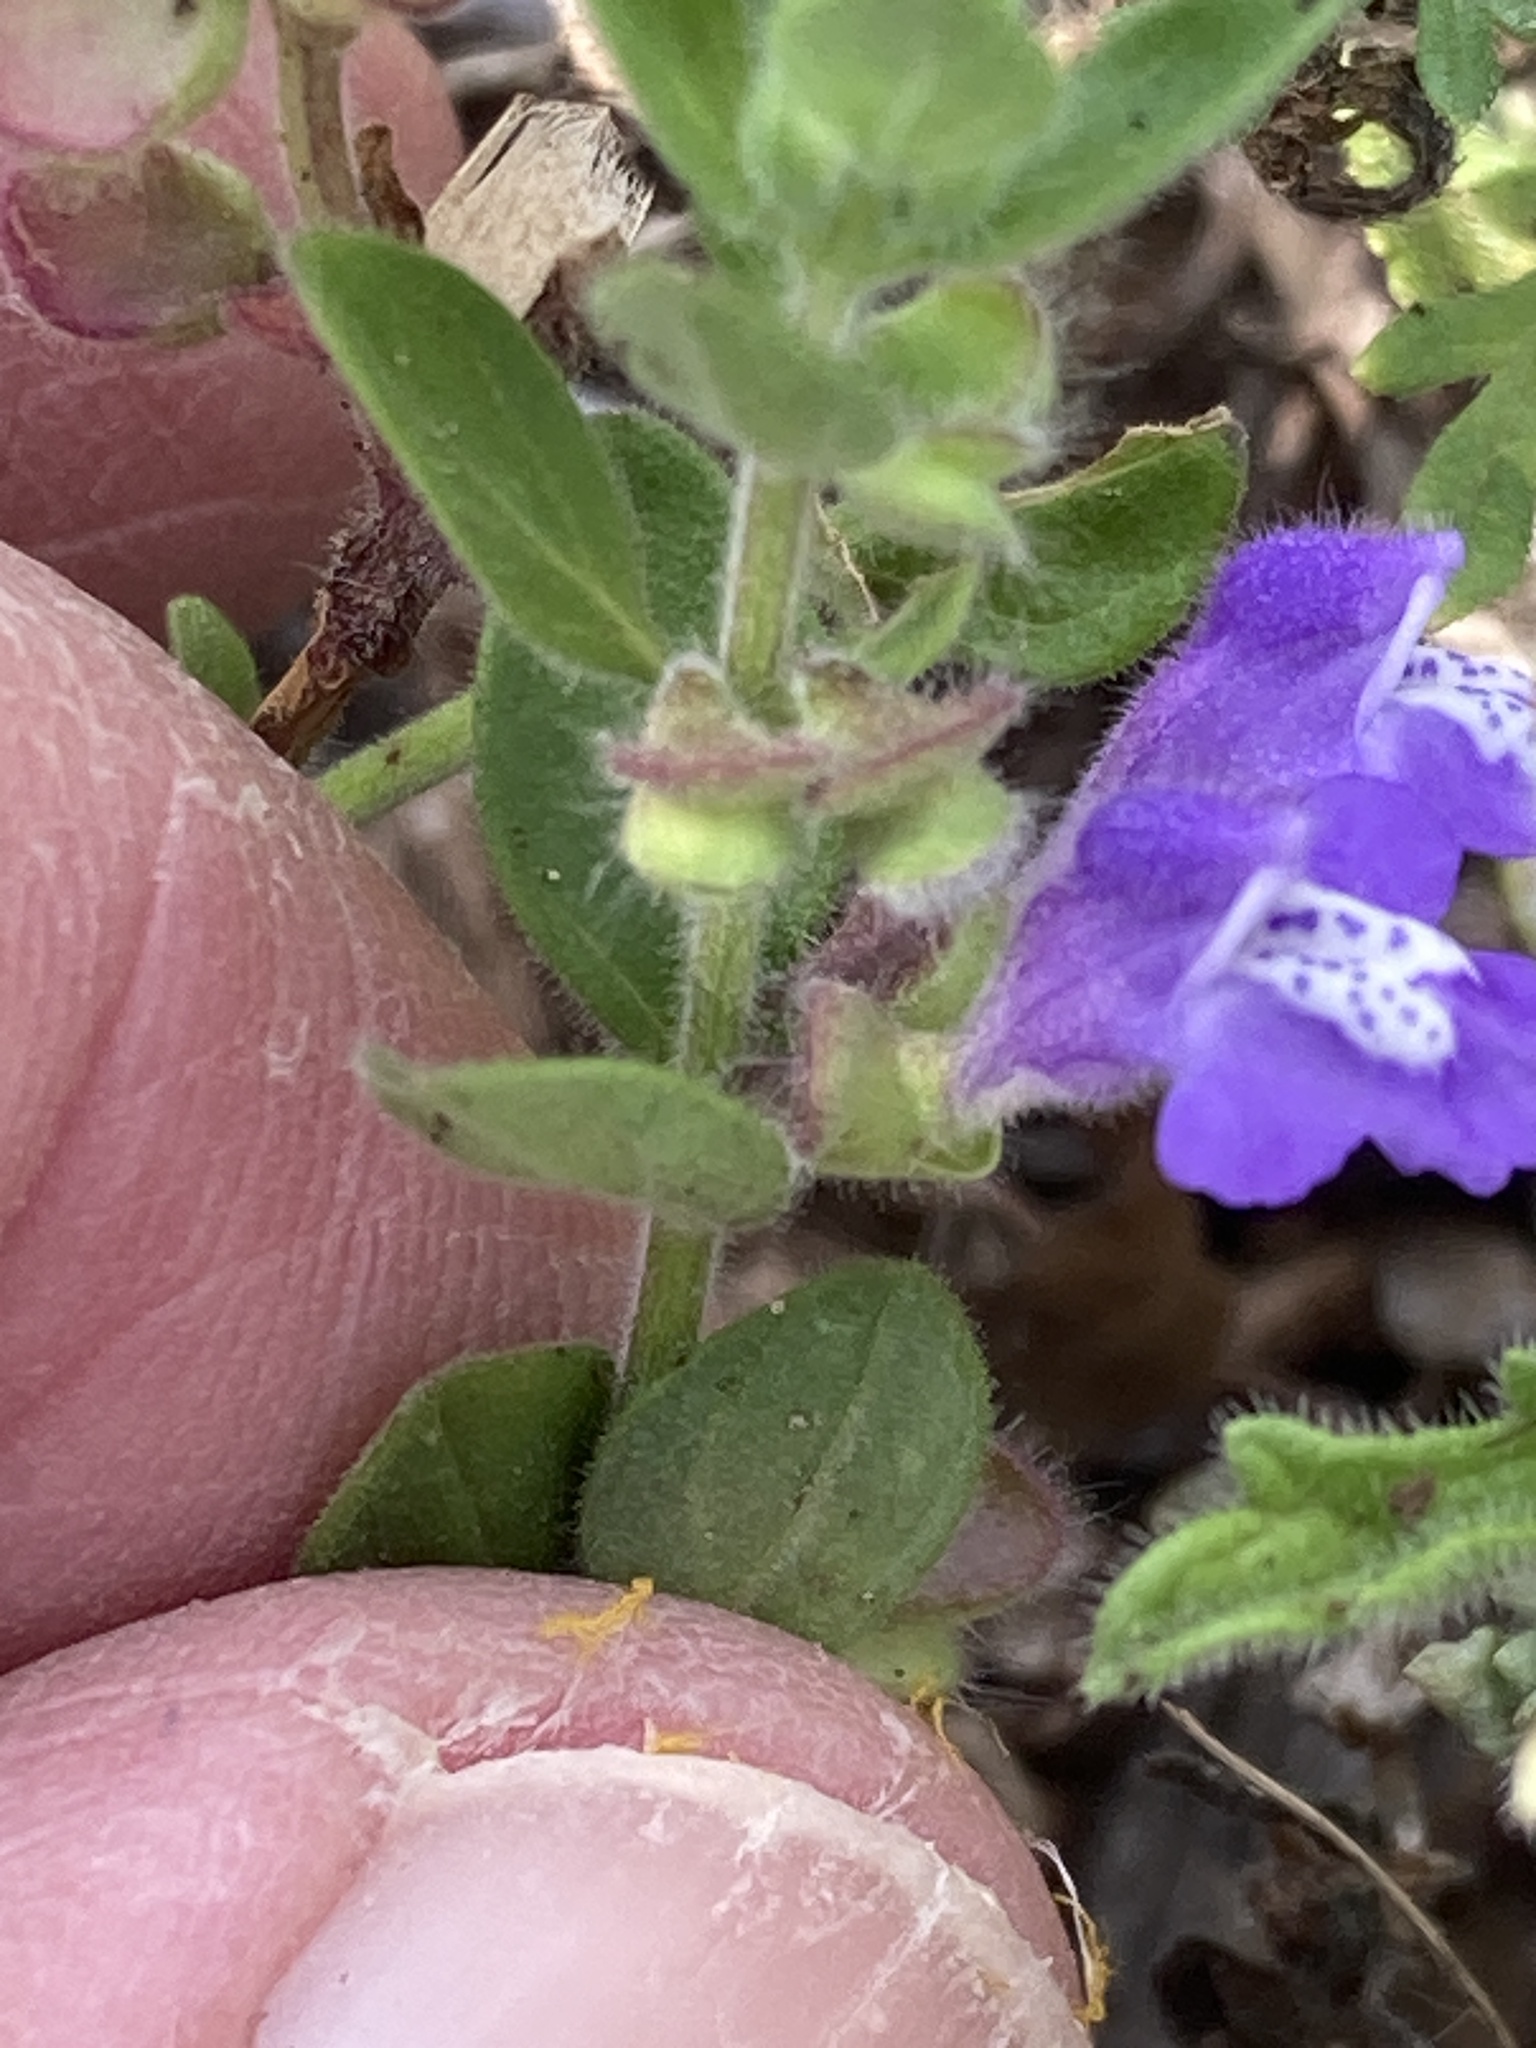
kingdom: Plantae
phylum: Tracheophyta
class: Magnoliopsida
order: Lamiales
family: Lamiaceae
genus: Scutellaria
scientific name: Scutellaria drummondii
